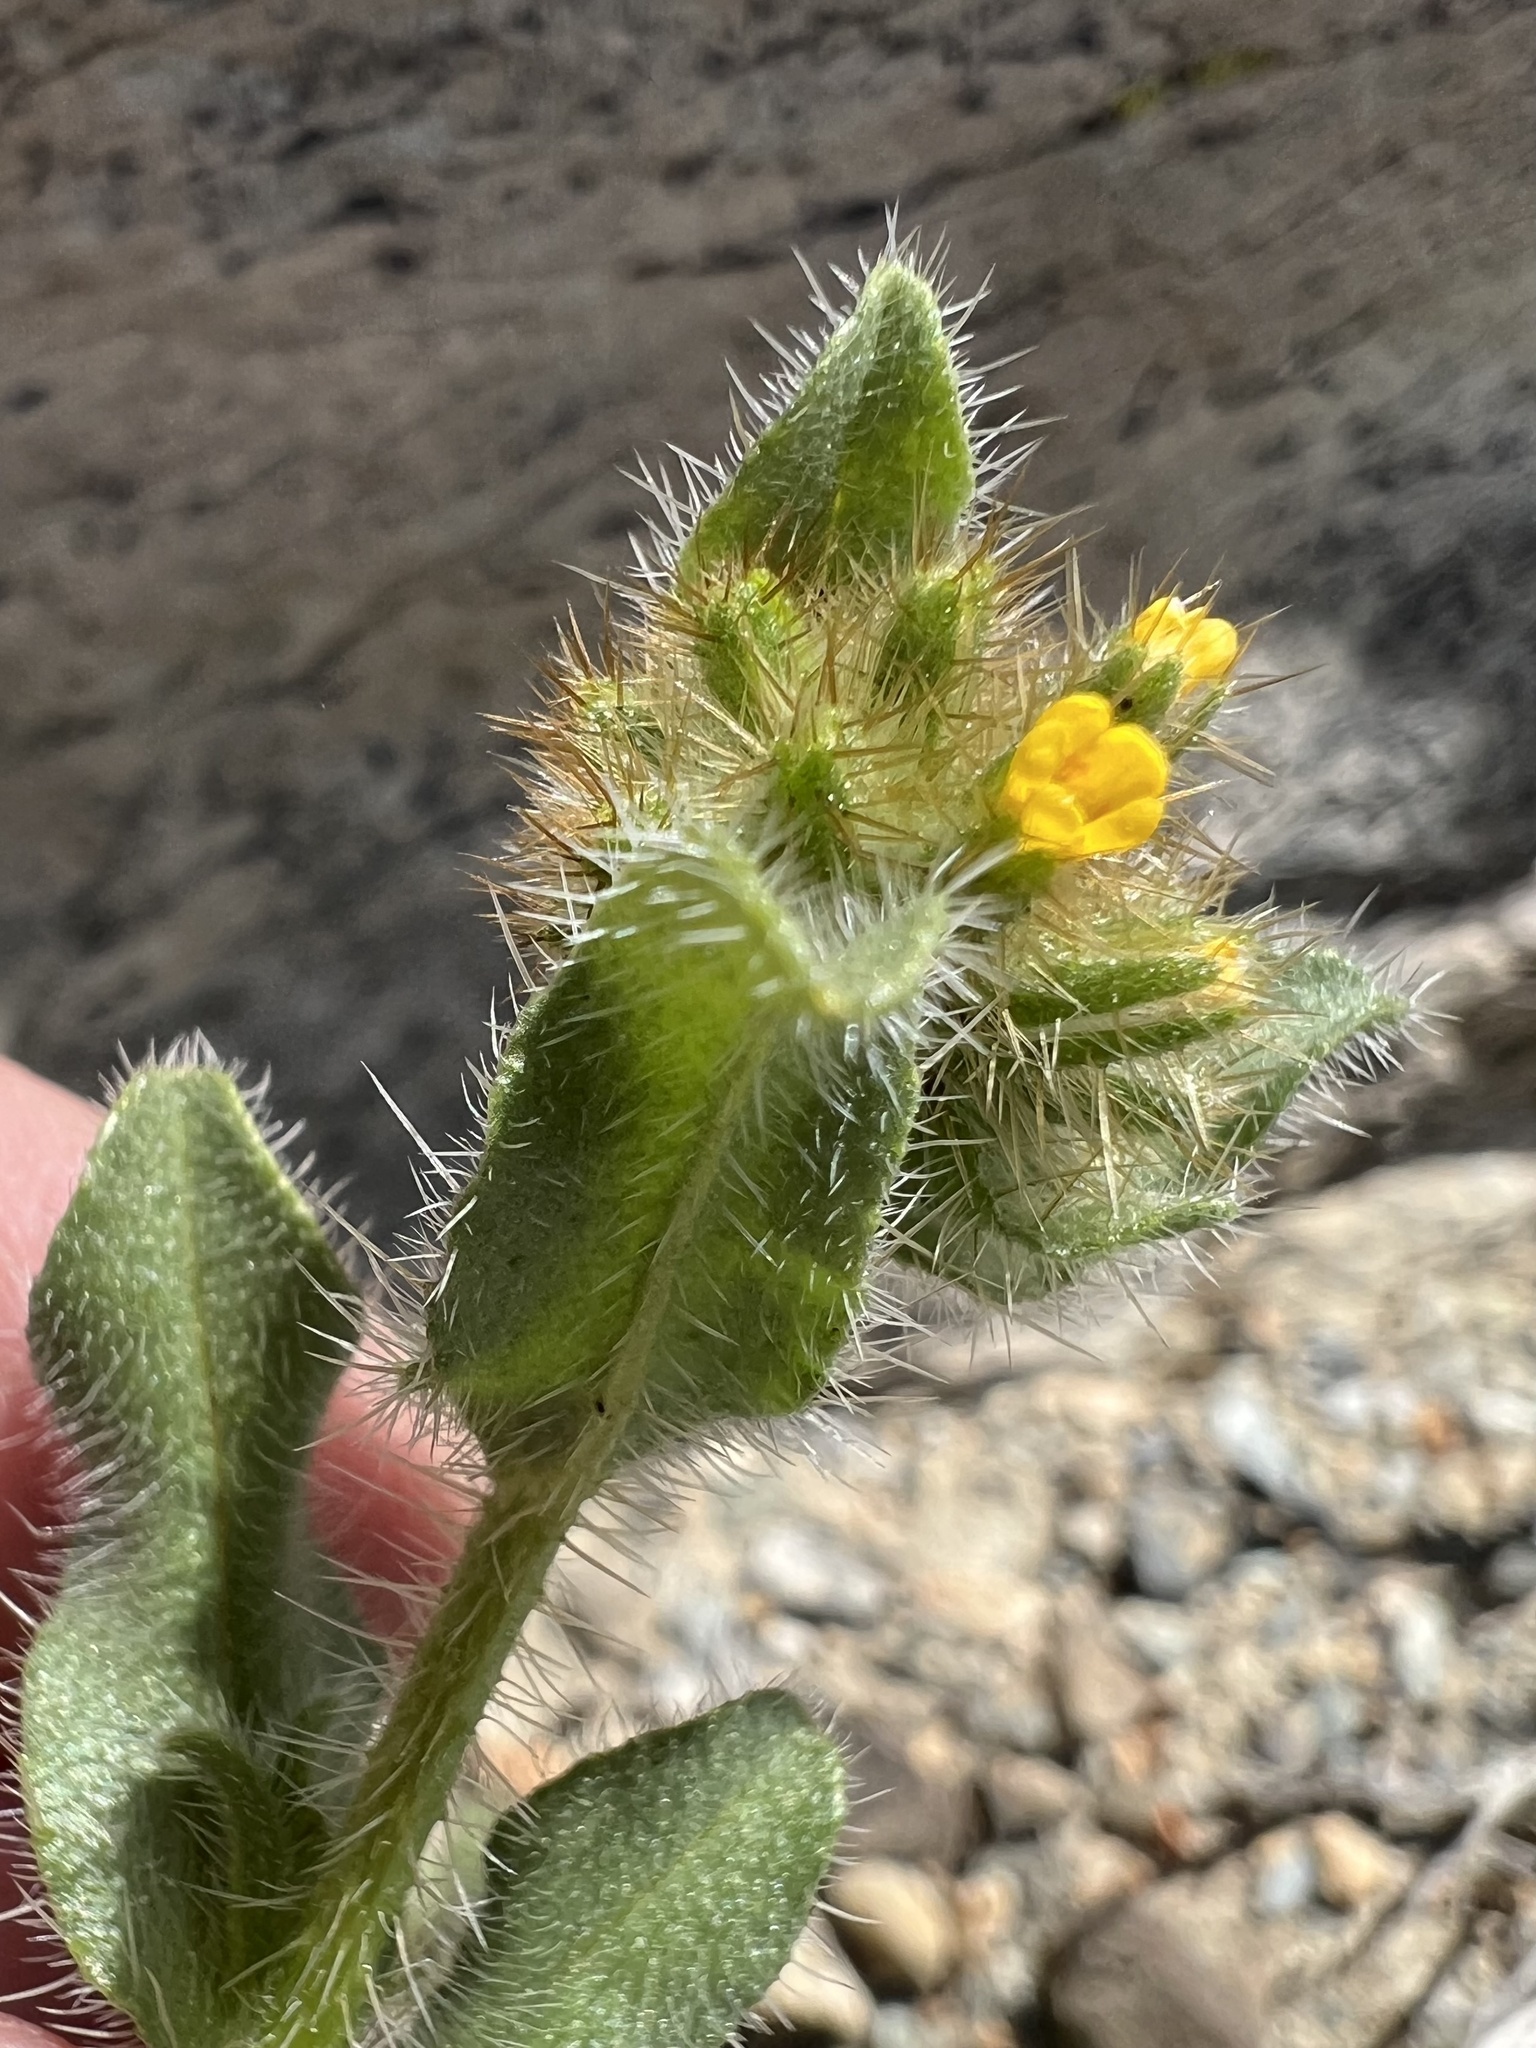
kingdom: Plantae
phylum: Tracheophyta
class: Magnoliopsida
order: Boraginales
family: Boraginaceae
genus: Amsinckia
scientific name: Amsinckia tessellata
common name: Tessellate fiddleneck
